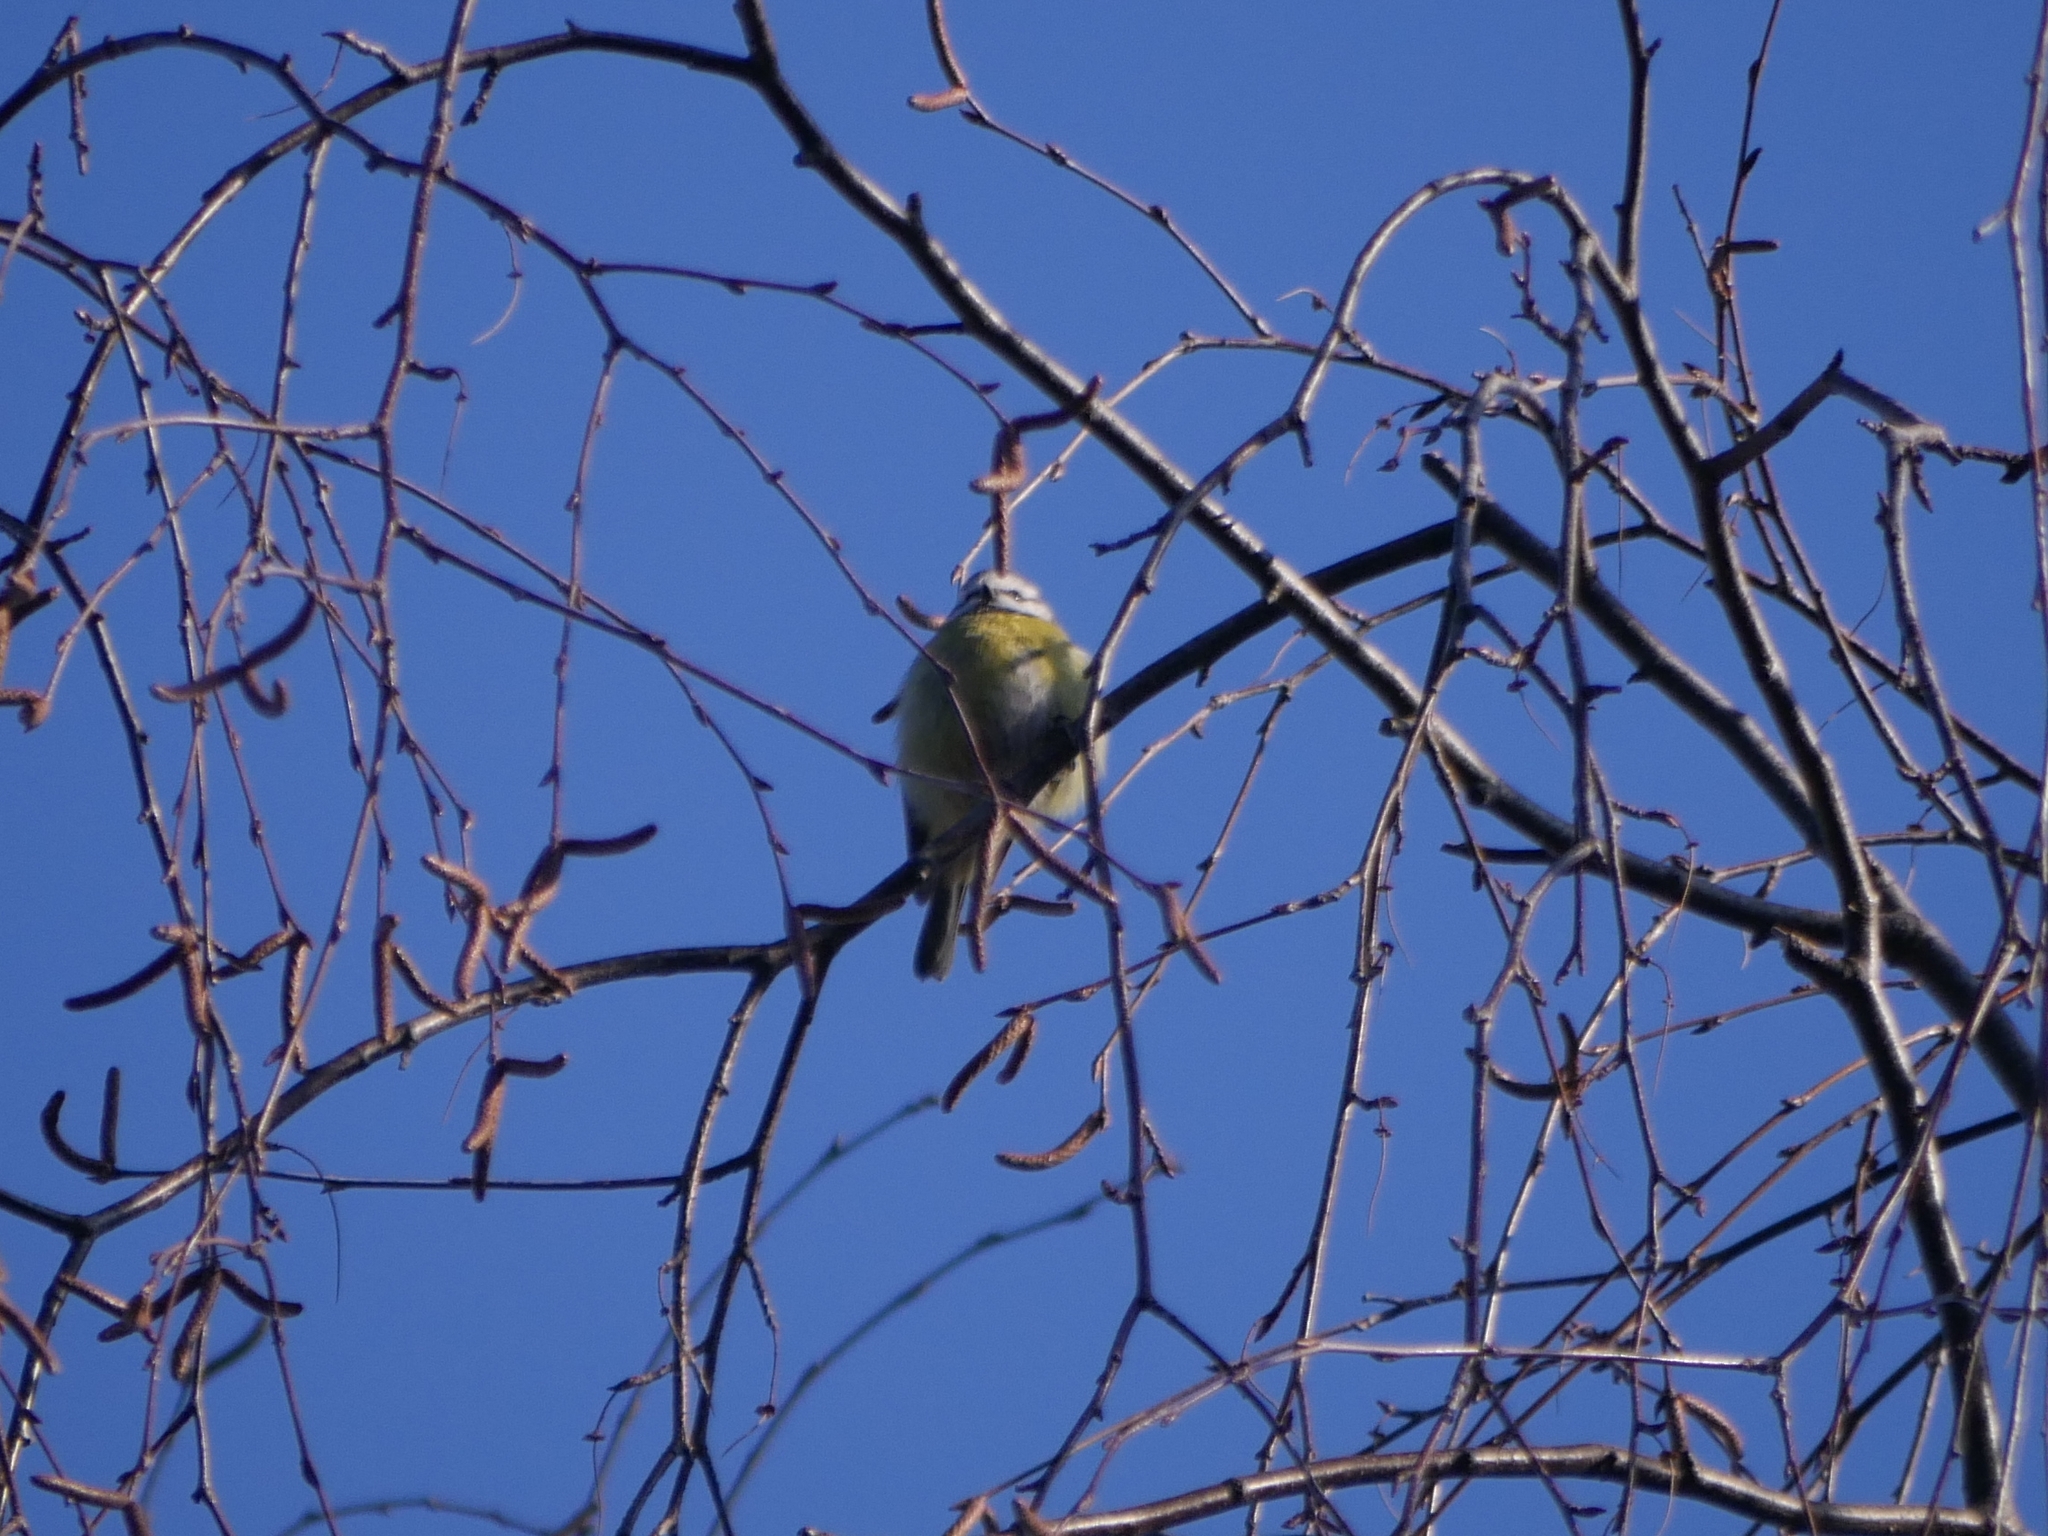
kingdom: Animalia
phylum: Chordata
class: Aves
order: Passeriformes
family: Paridae
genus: Cyanistes
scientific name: Cyanistes caeruleus
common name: Eurasian blue tit
